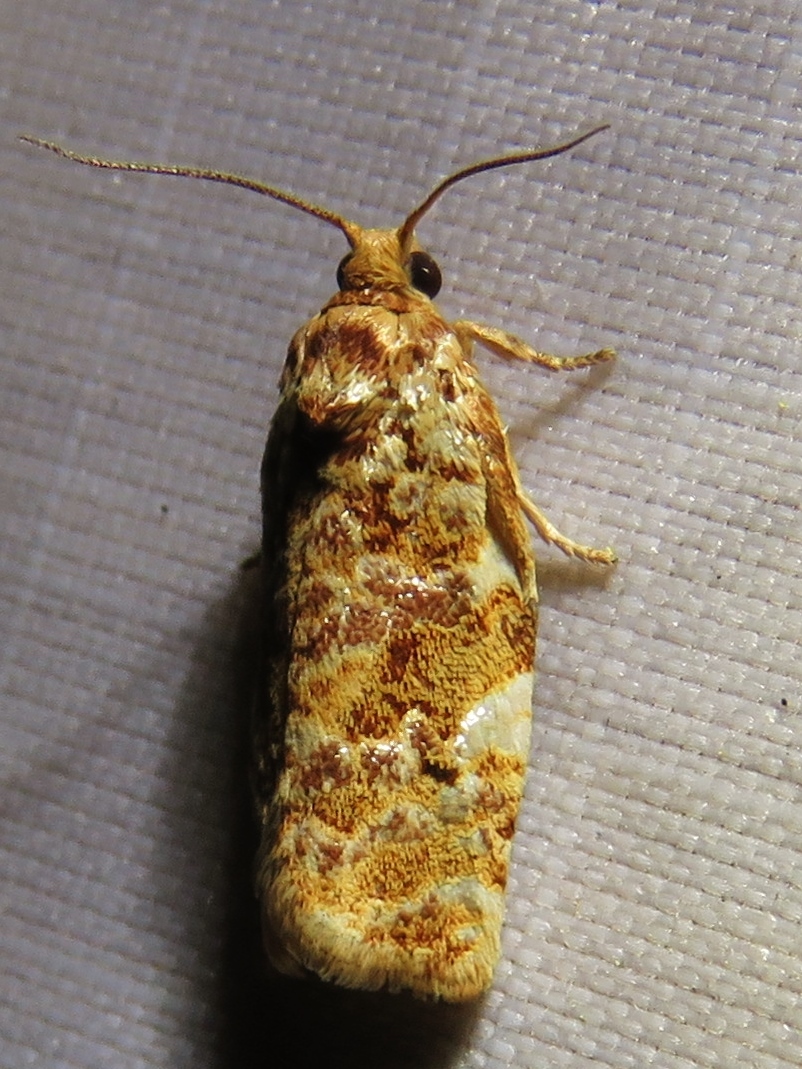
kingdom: Animalia
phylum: Arthropoda
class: Insecta
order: Lepidoptera
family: Tortricidae
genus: Archips
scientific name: Archips argyrospila
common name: Fruit-tree leafroller moth
